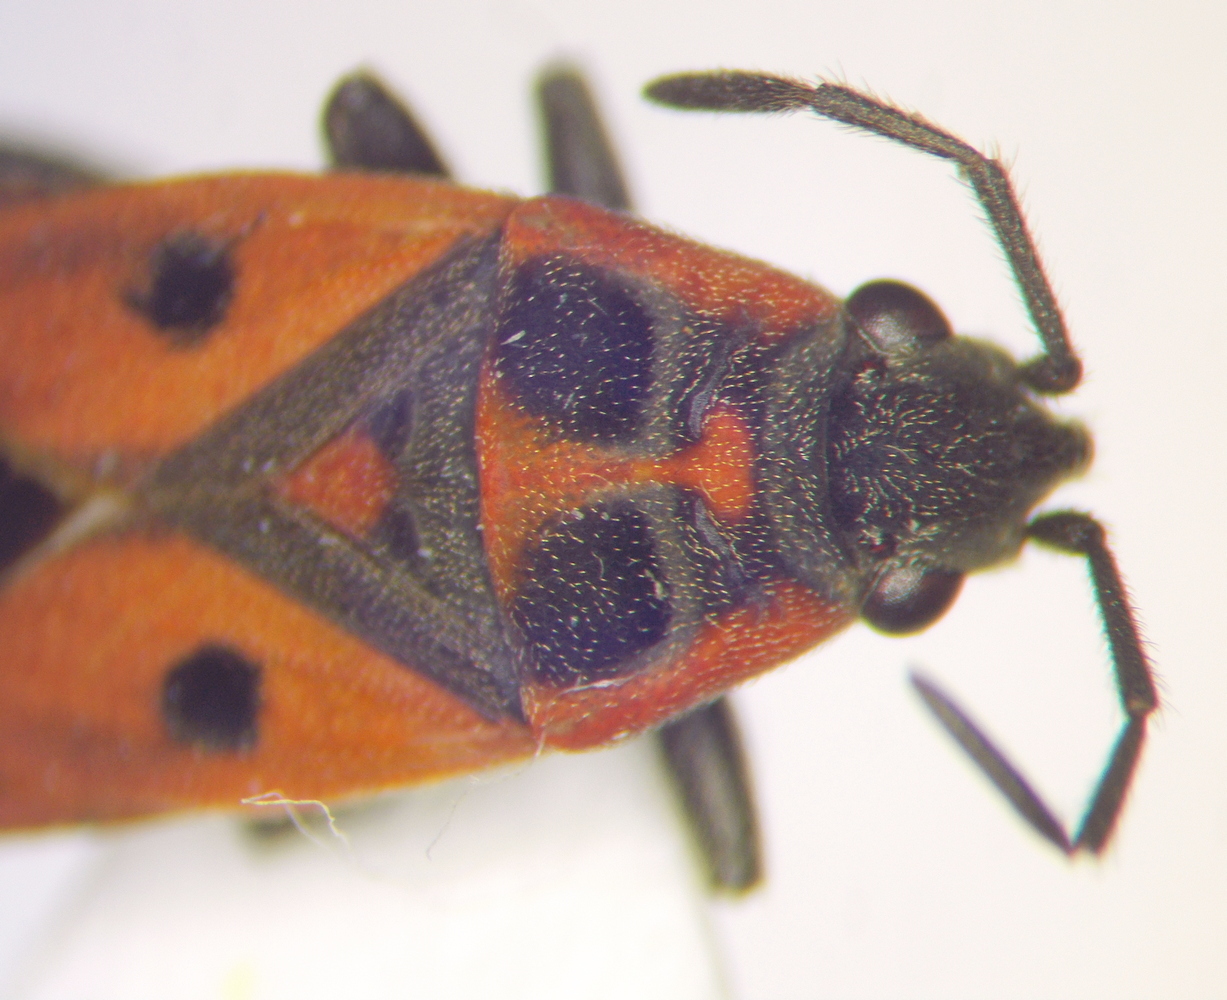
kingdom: Animalia
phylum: Arthropoda
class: Insecta
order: Hemiptera
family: Lygaeidae
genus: Melanocoryphus
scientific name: Melanocoryphus tristrami
